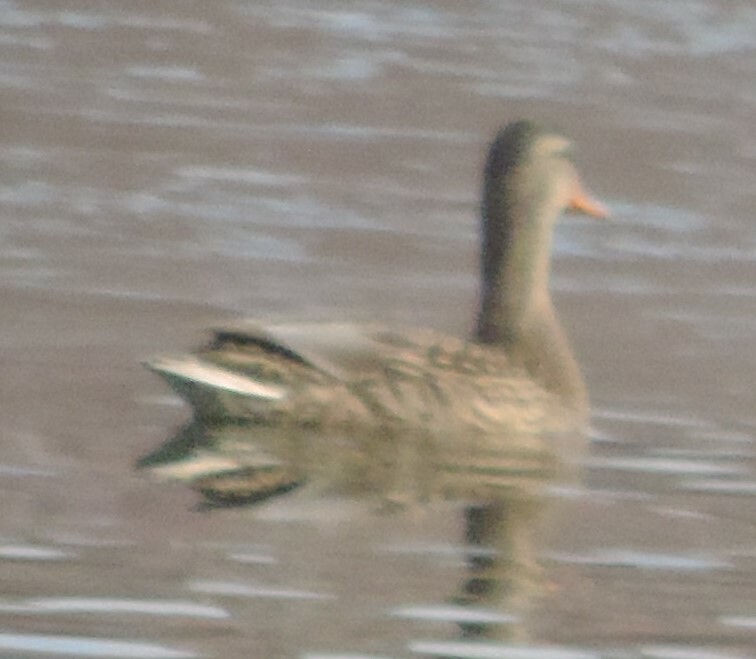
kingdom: Animalia
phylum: Chordata
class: Aves
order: Anseriformes
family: Anatidae
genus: Anas
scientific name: Anas platyrhynchos
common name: Mallard
